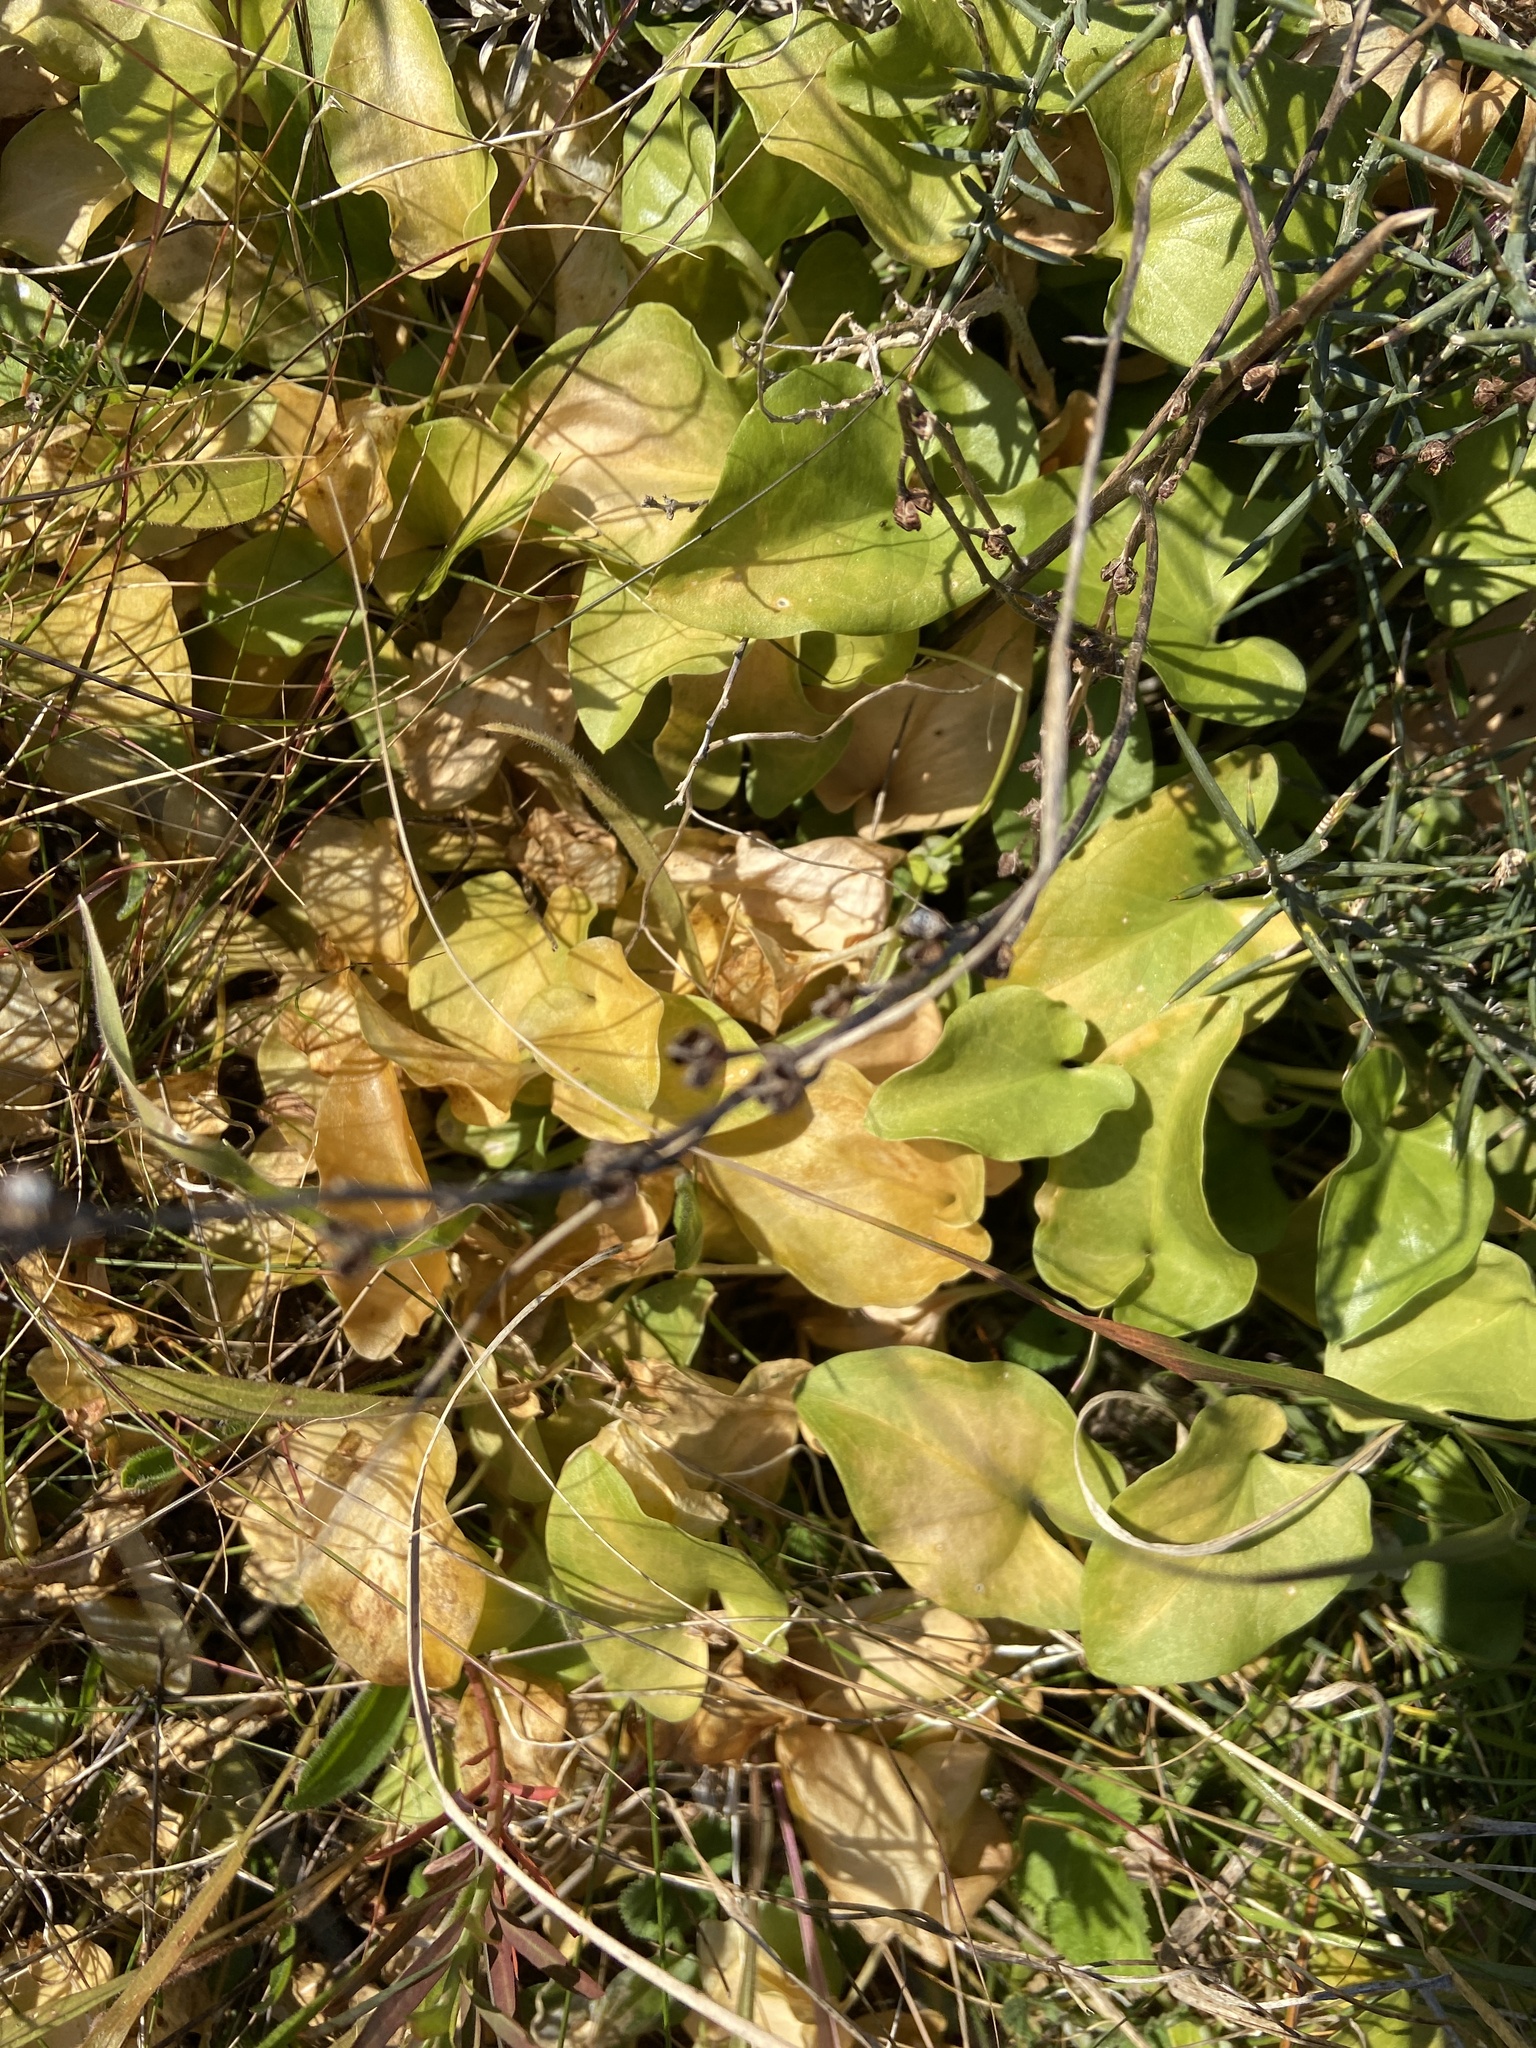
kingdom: Plantae
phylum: Tracheophyta
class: Liliopsida
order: Alismatales
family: Araceae
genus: Arisarum
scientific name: Arisarum vulgare
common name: Common arisarum
